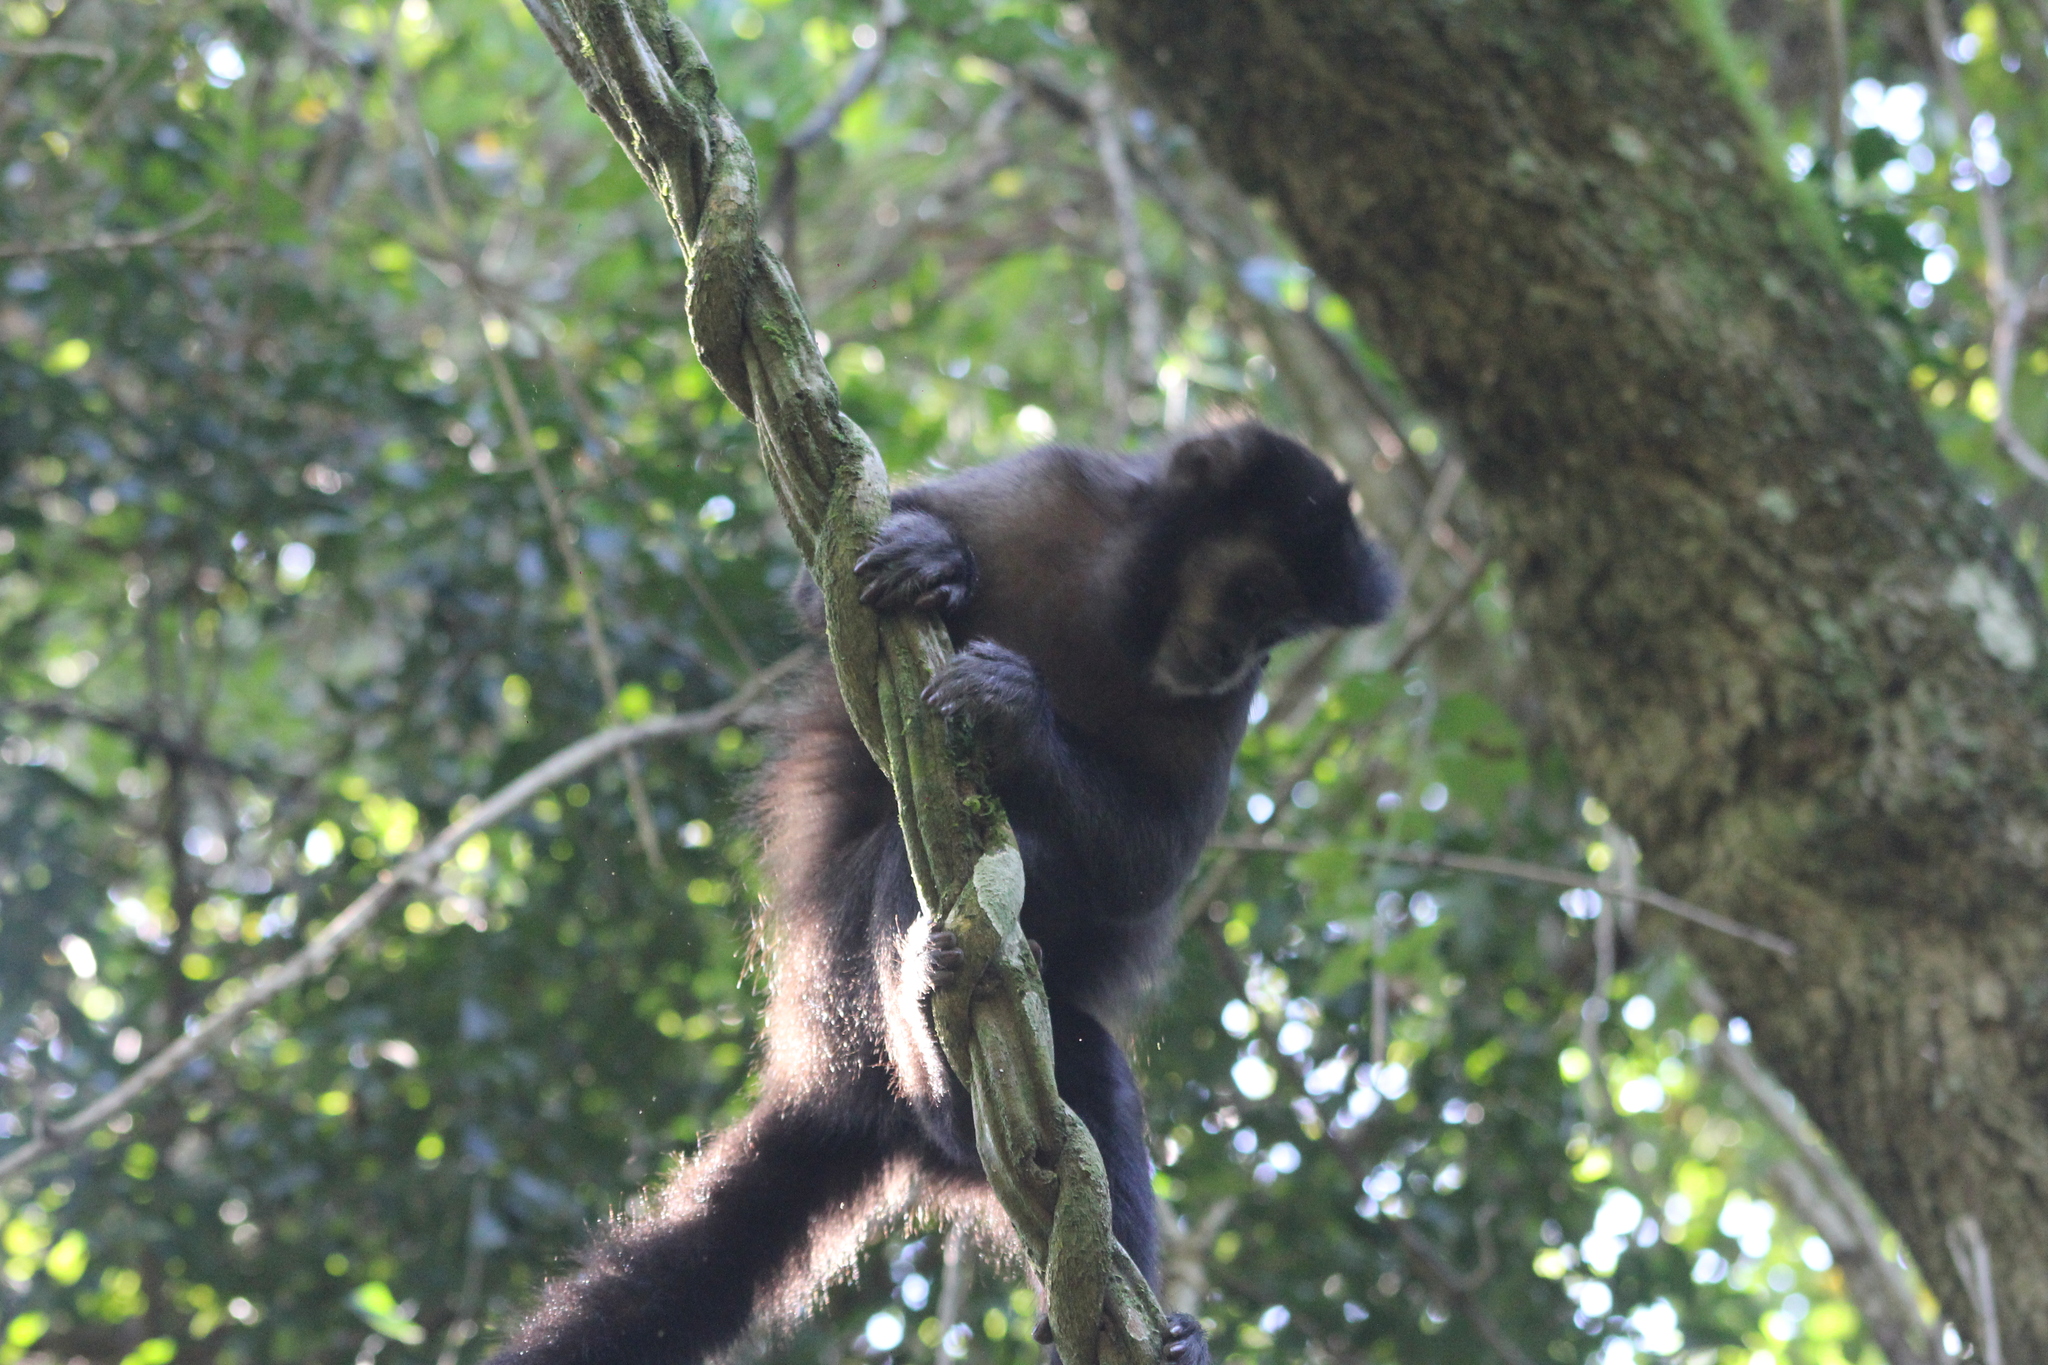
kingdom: Animalia
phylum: Chordata
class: Mammalia
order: Primates
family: Cebidae
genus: Sapajus
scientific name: Sapajus nigritus
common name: Black capuchin
